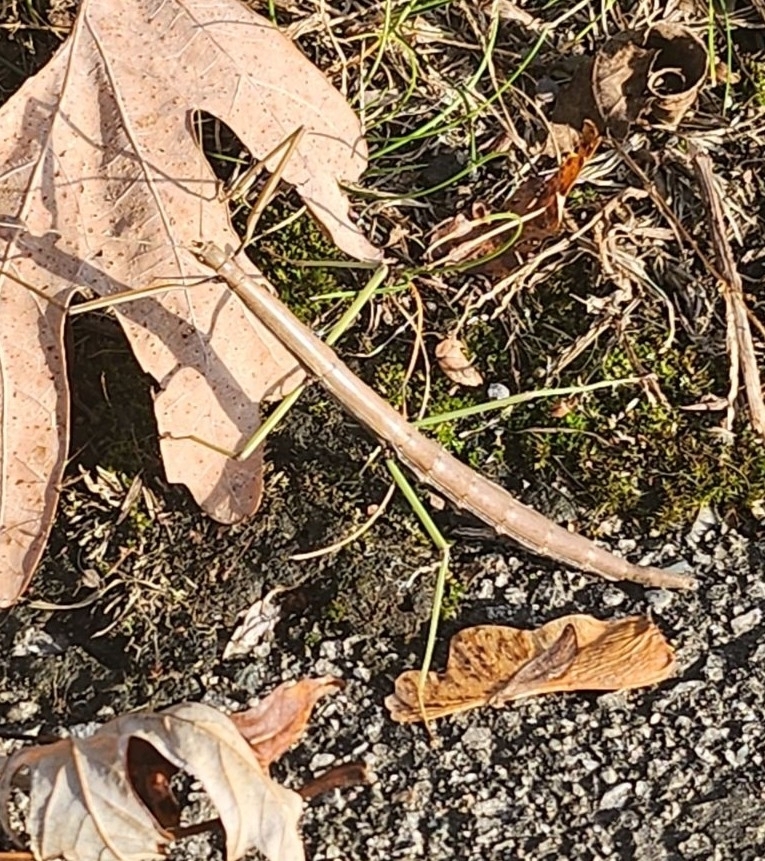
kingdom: Animalia
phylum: Arthropoda
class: Insecta
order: Phasmida
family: Diapheromeridae
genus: Diapheromera
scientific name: Diapheromera femorata
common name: Common american walkingstick
